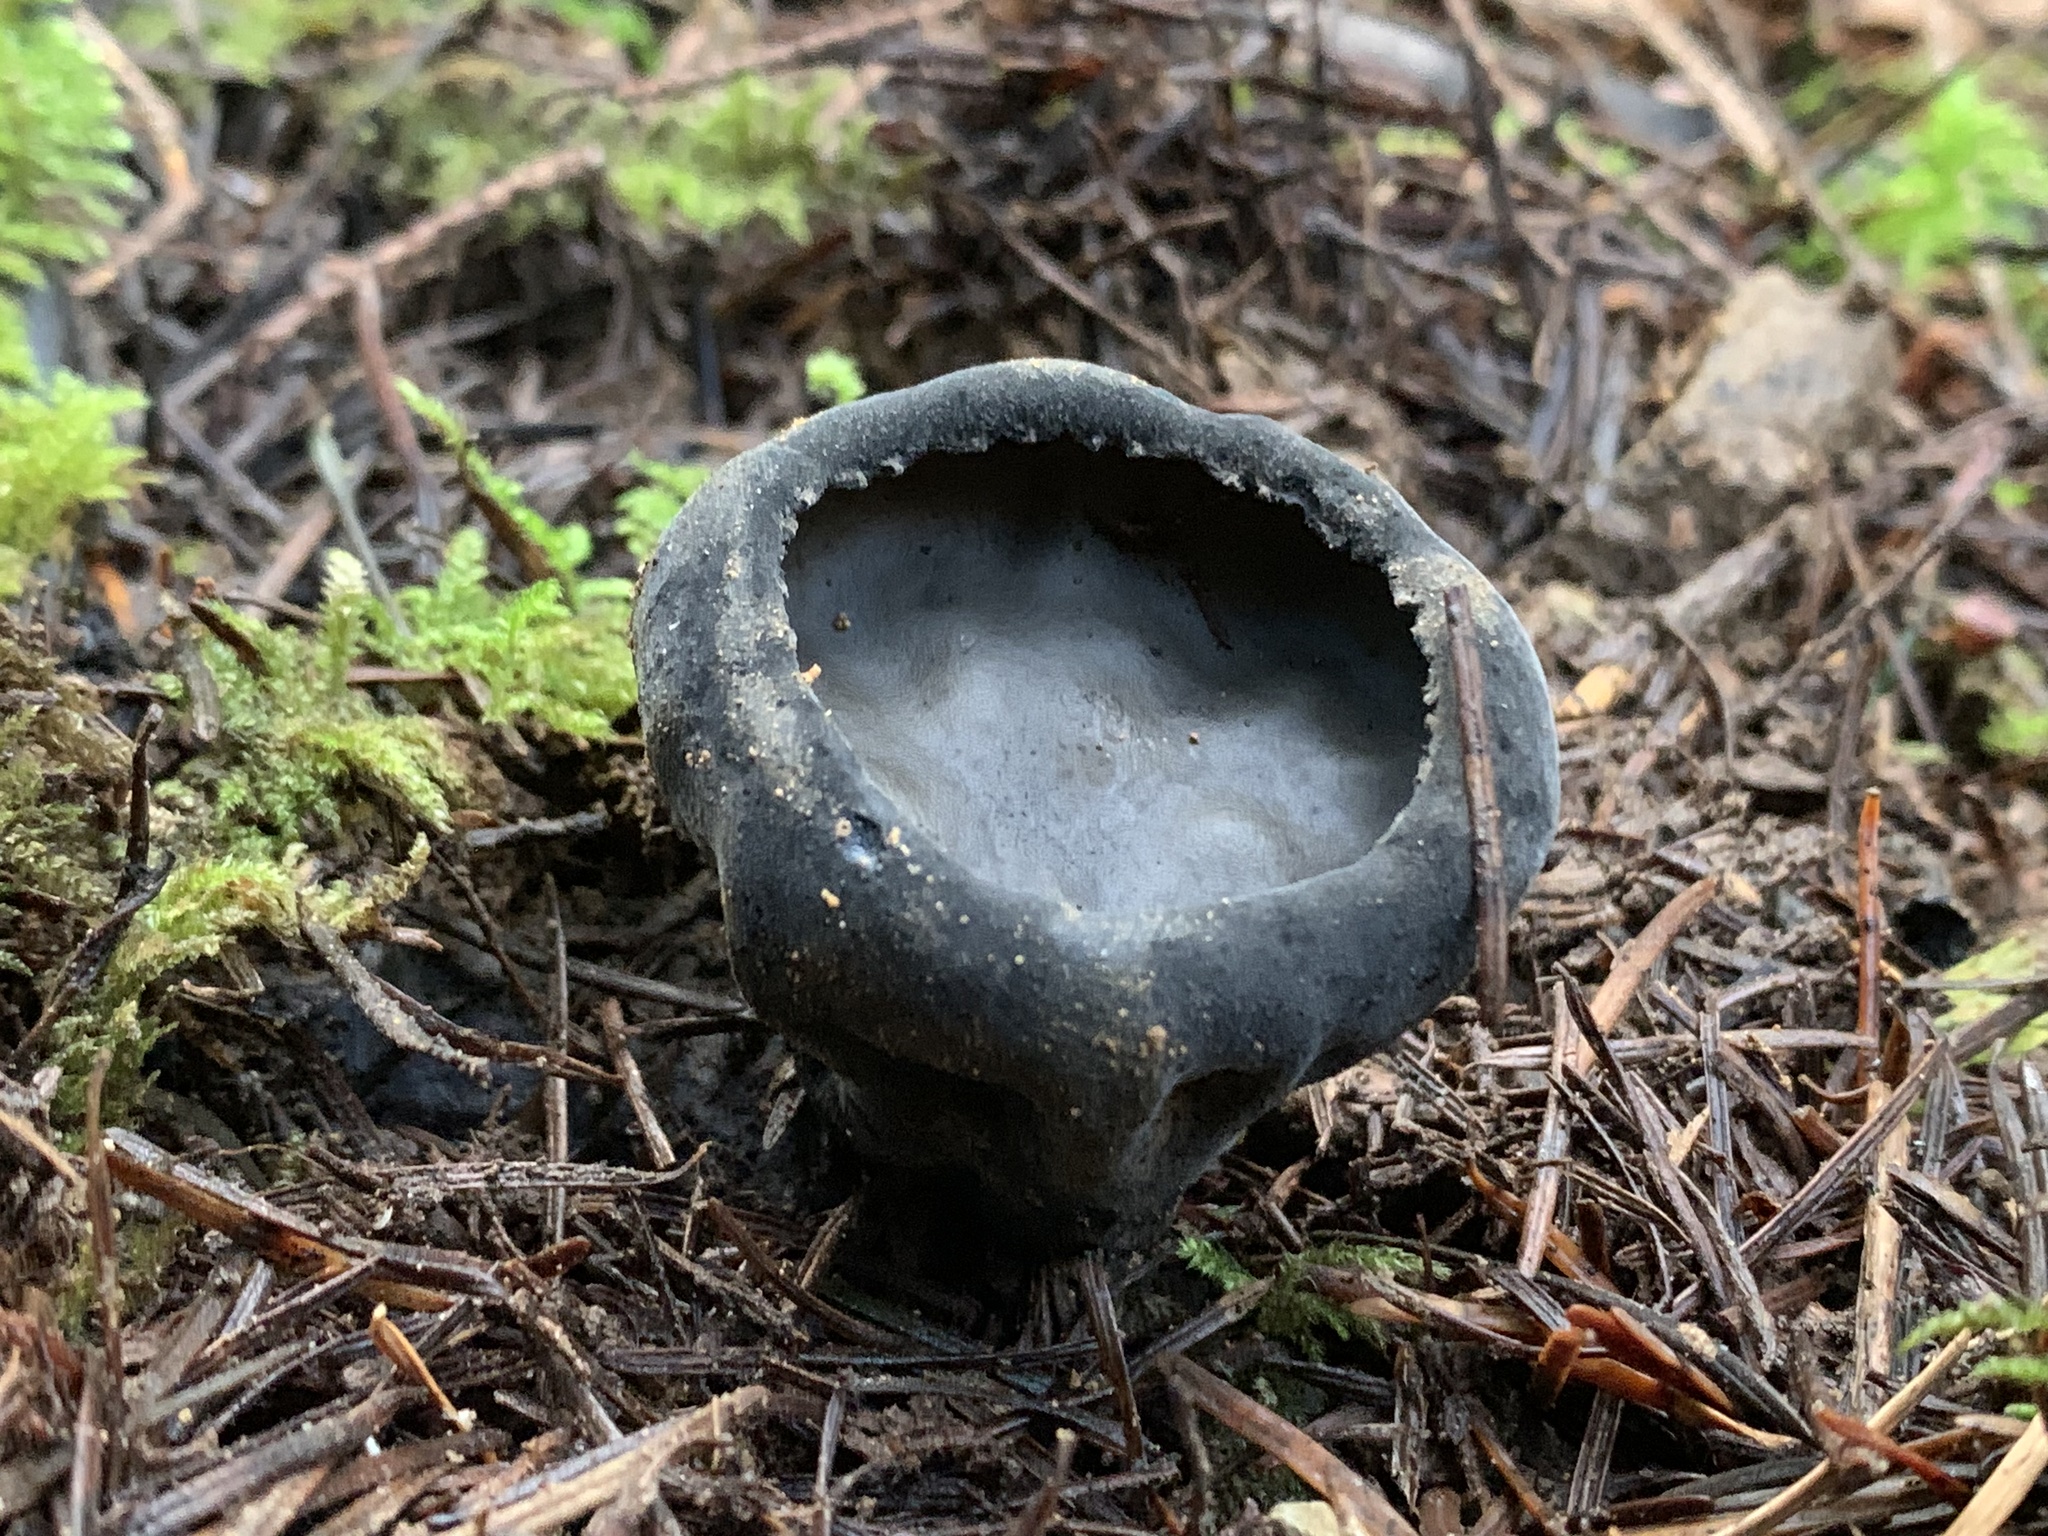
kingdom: Fungi
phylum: Ascomycota
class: Pezizomycetes
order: Pezizales
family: Sarcosomataceae
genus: Urnula
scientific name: Urnula padeniana
